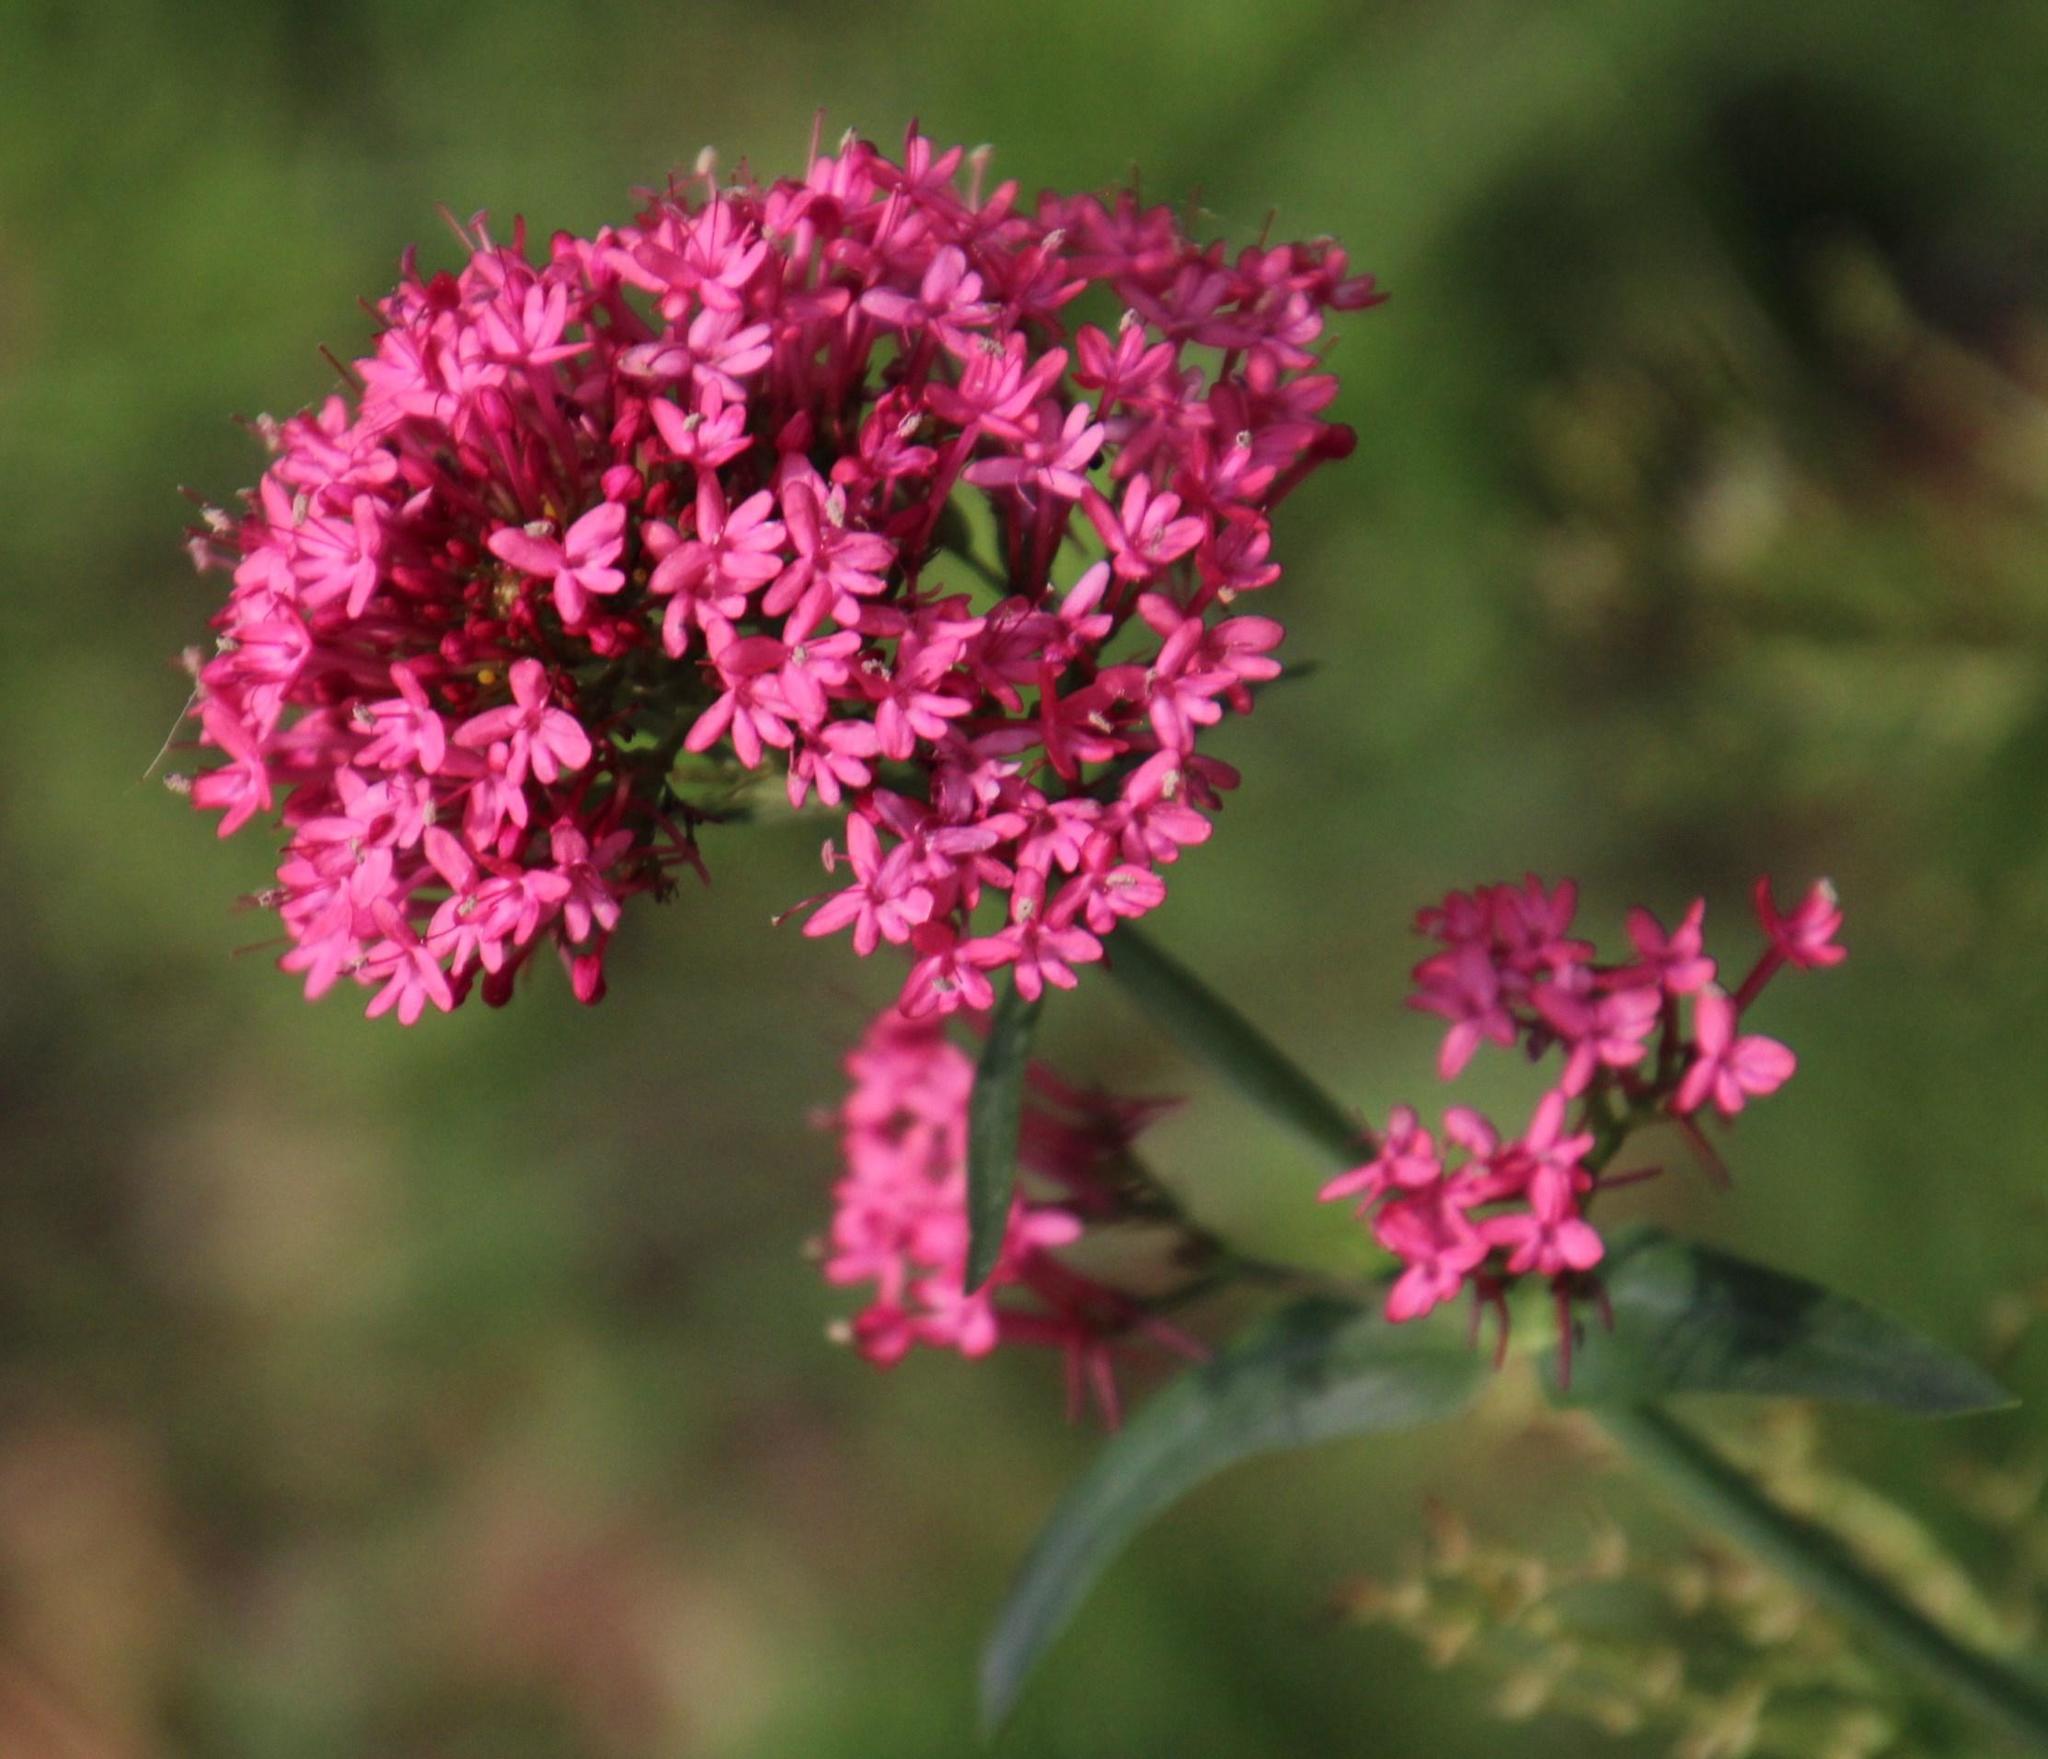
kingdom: Plantae
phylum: Tracheophyta
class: Magnoliopsida
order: Dipsacales
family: Caprifoliaceae
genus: Centranthus
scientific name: Centranthus ruber
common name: Red valerian
